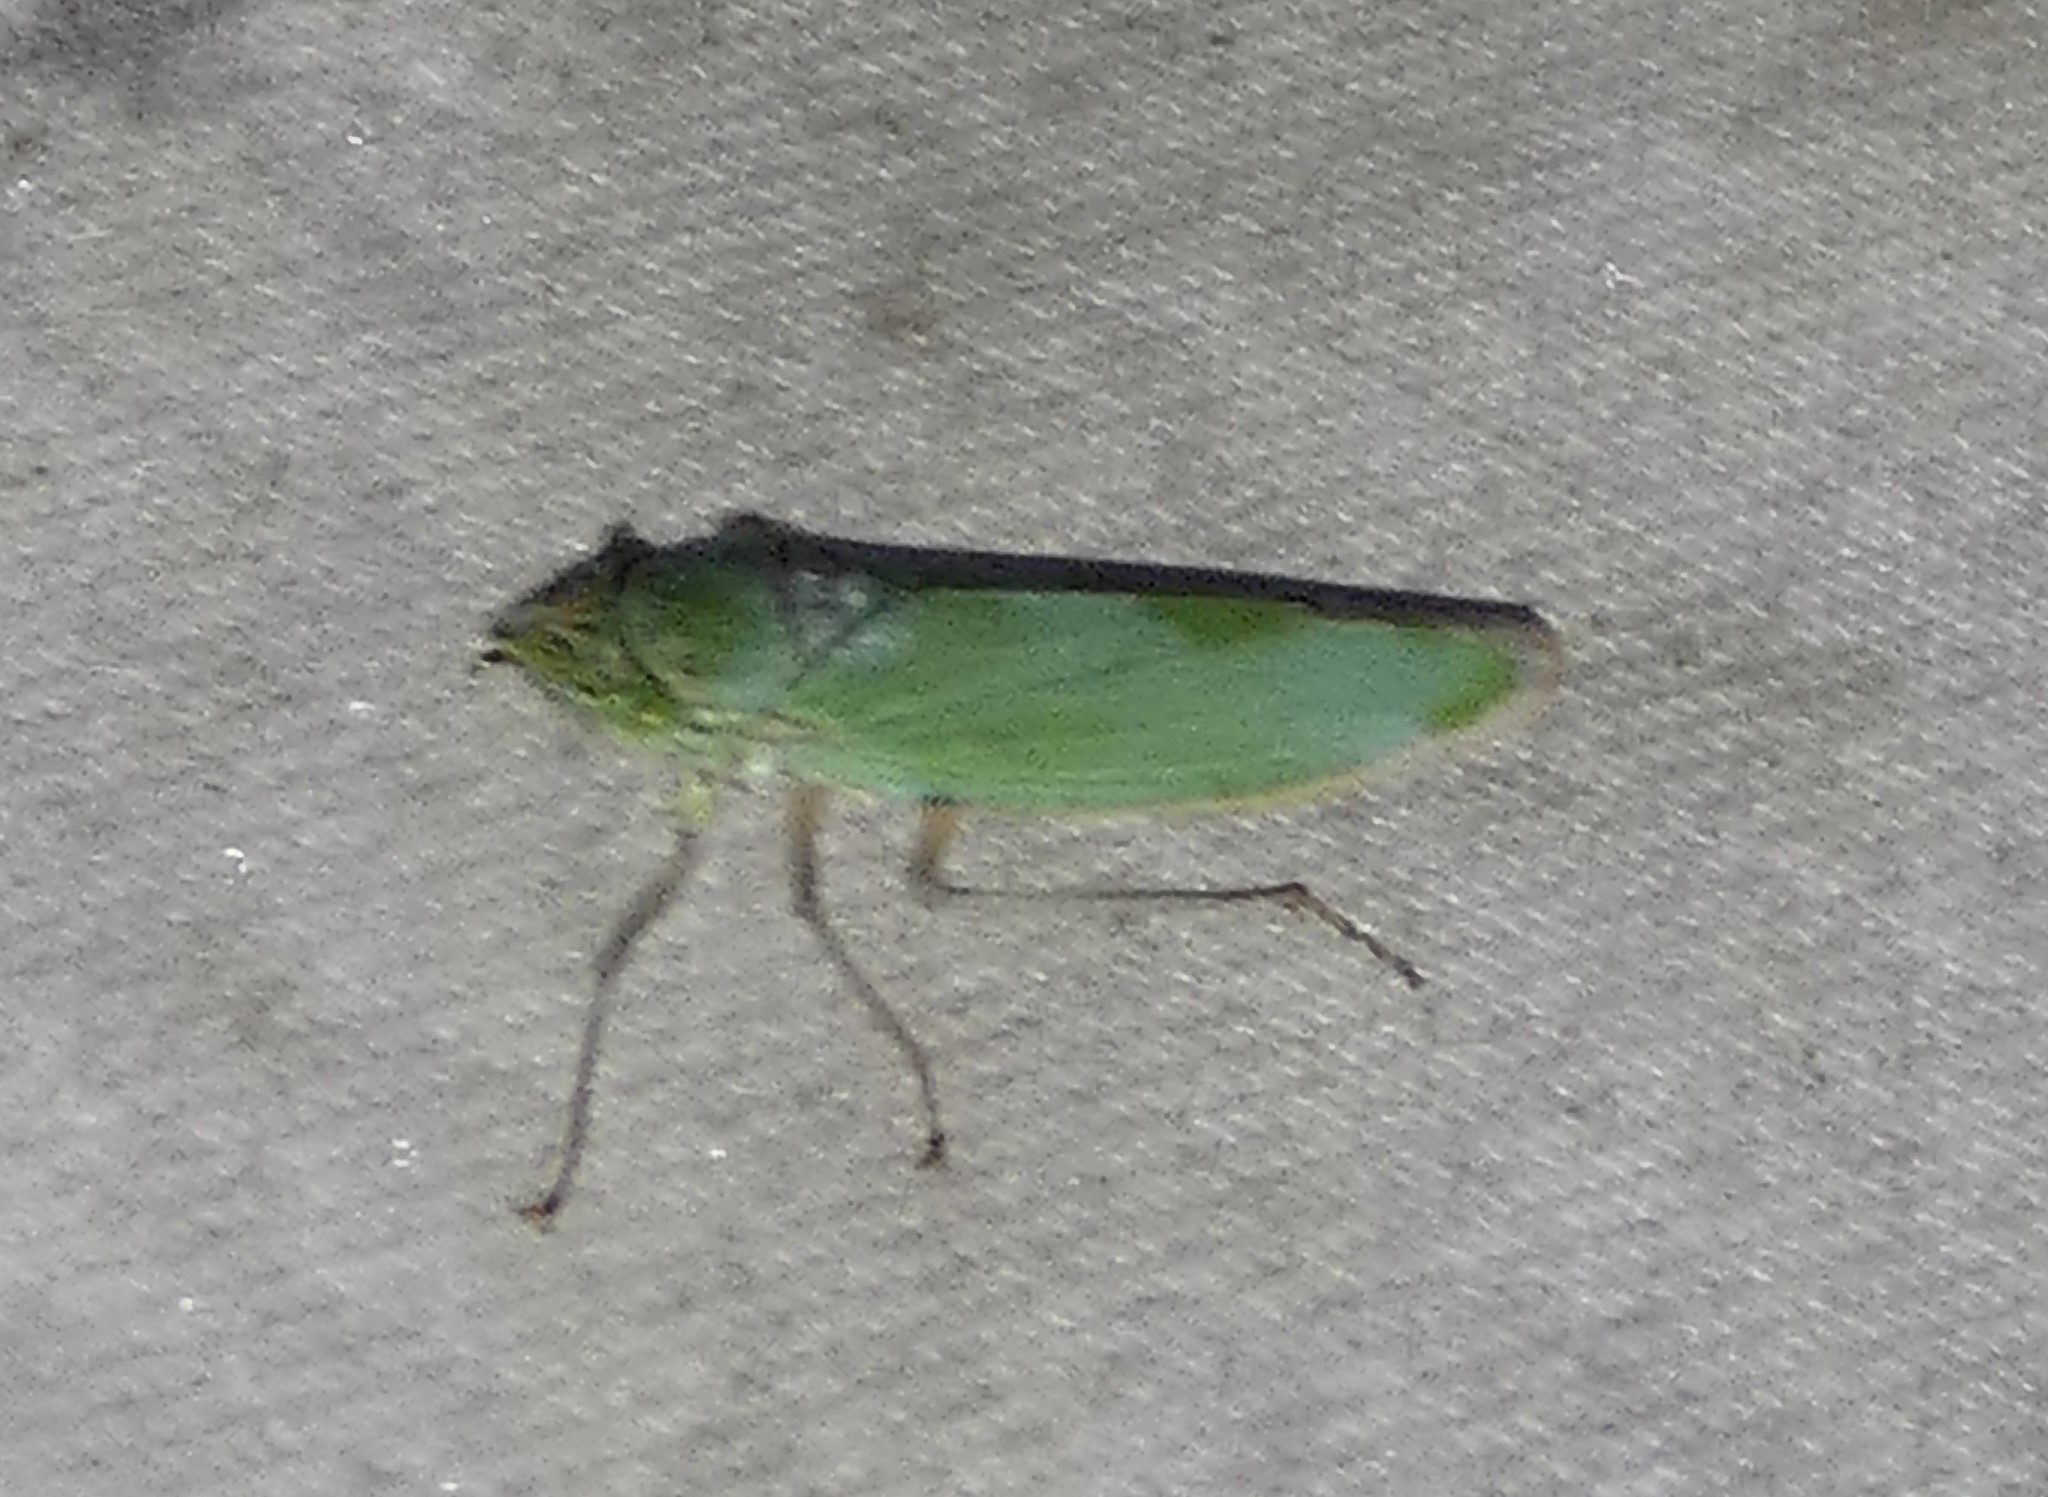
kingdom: Animalia
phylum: Arthropoda
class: Insecta
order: Hemiptera
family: Cicadellidae
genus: Draeculacephala
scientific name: Draeculacephala inscripta
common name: Leafhopper
